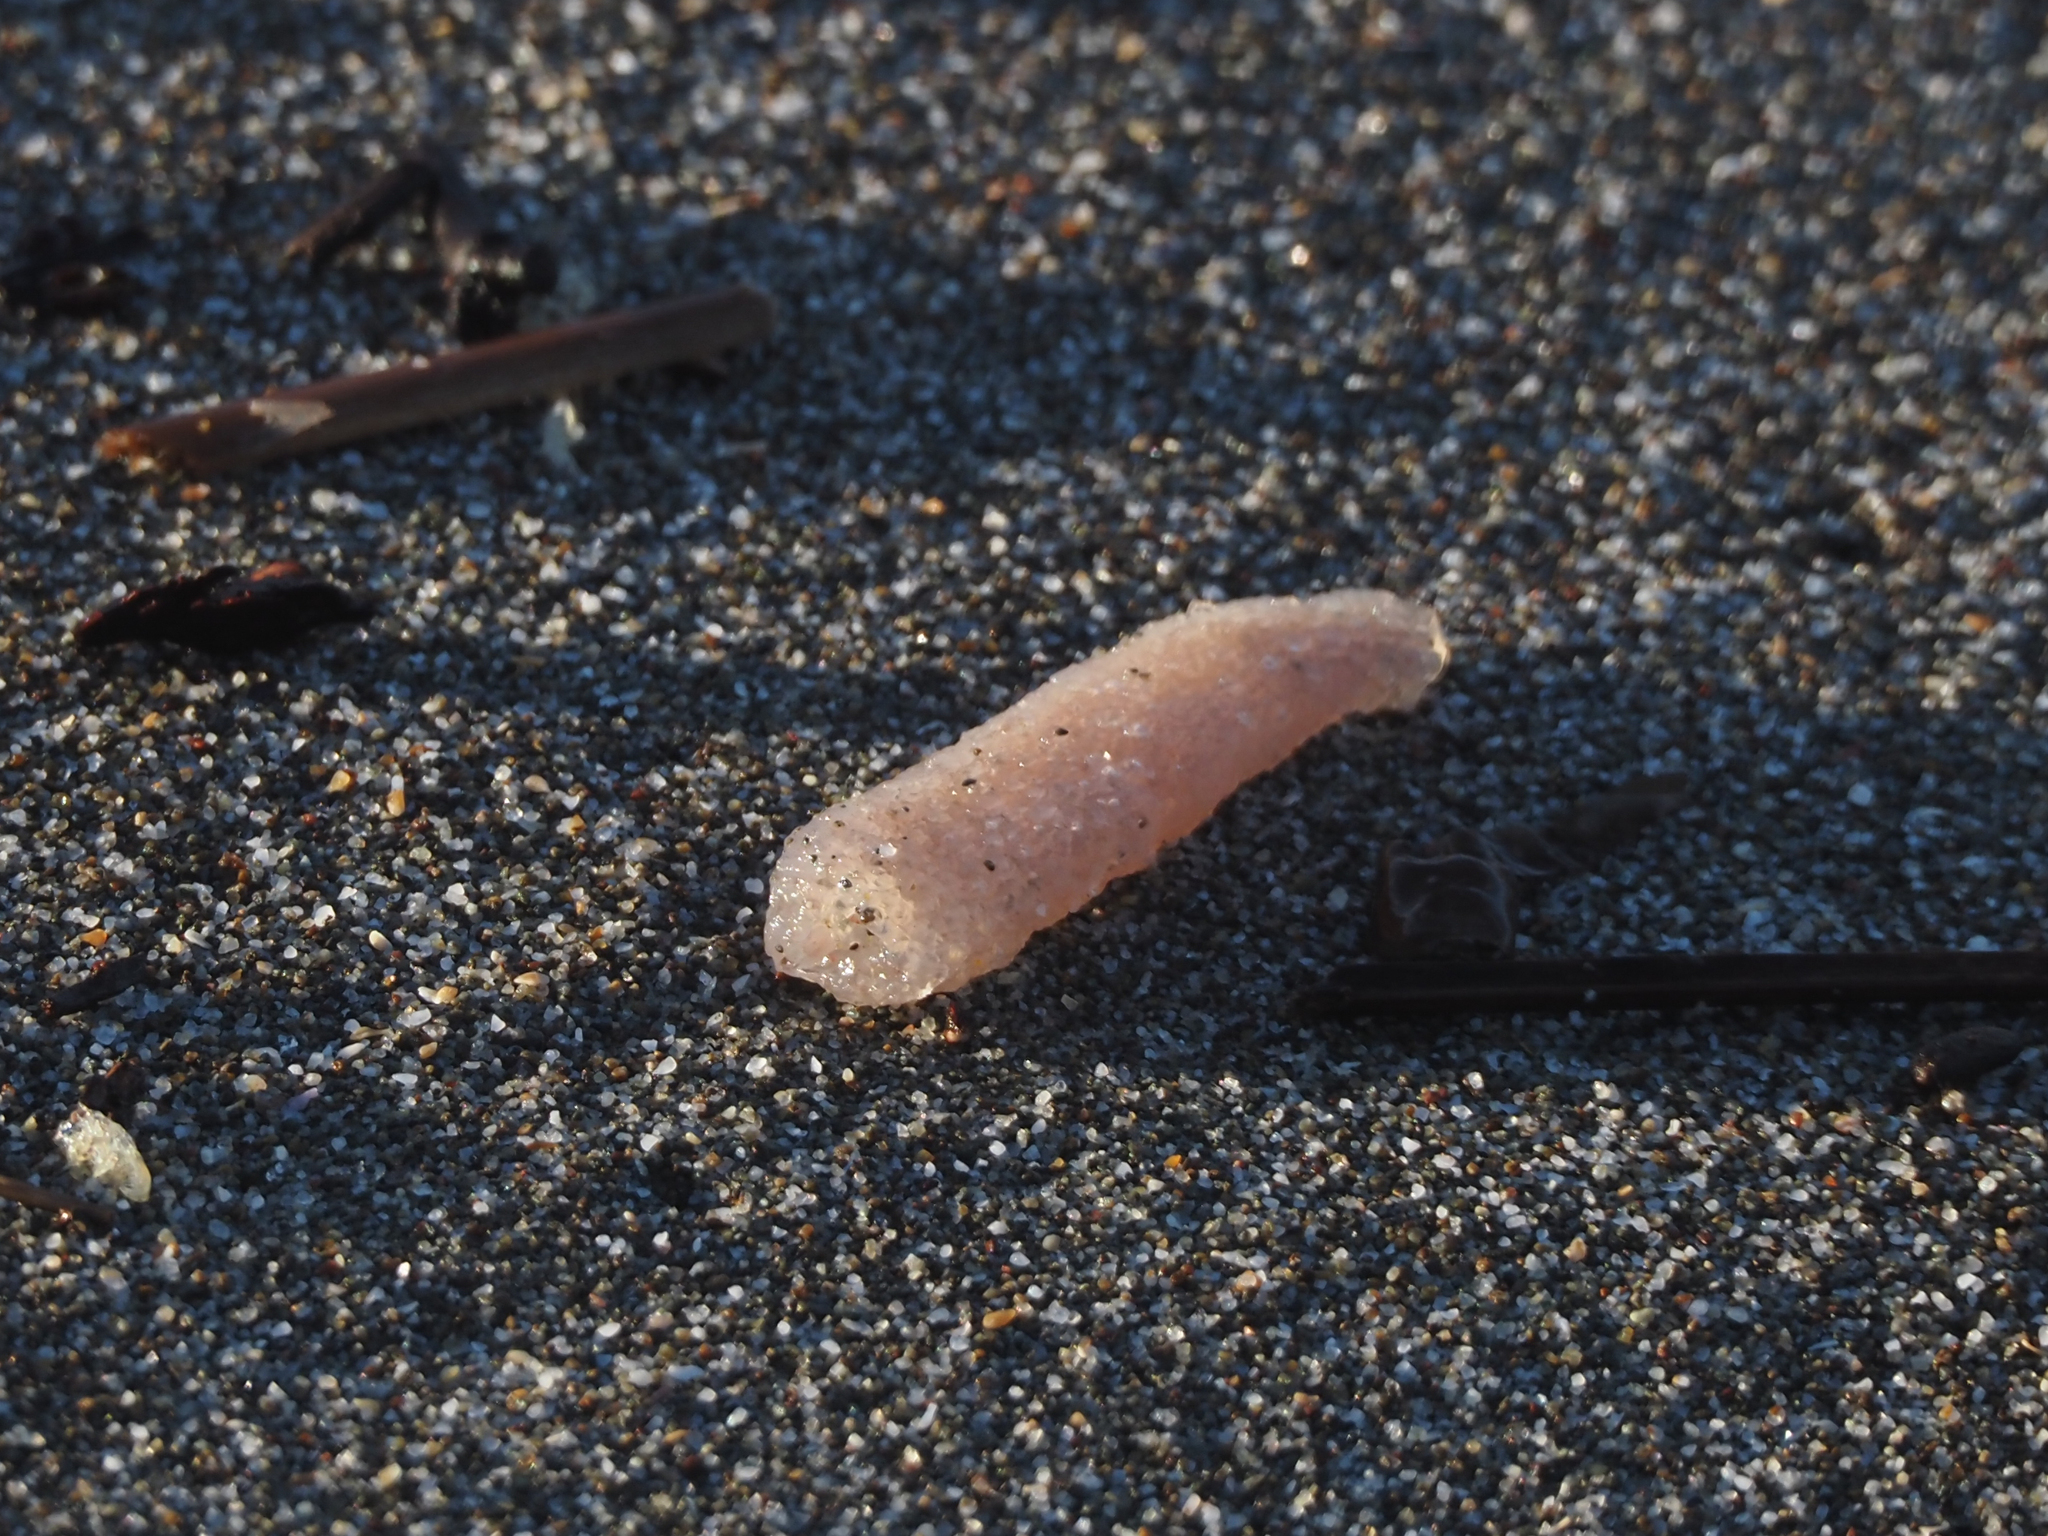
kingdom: Animalia
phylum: Chordata
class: Thaliacea
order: Pyrosomatida
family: Pyrosomatidae
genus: Pyrosoma
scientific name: Pyrosoma atlanticum
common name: Atlantic pyrosomes
